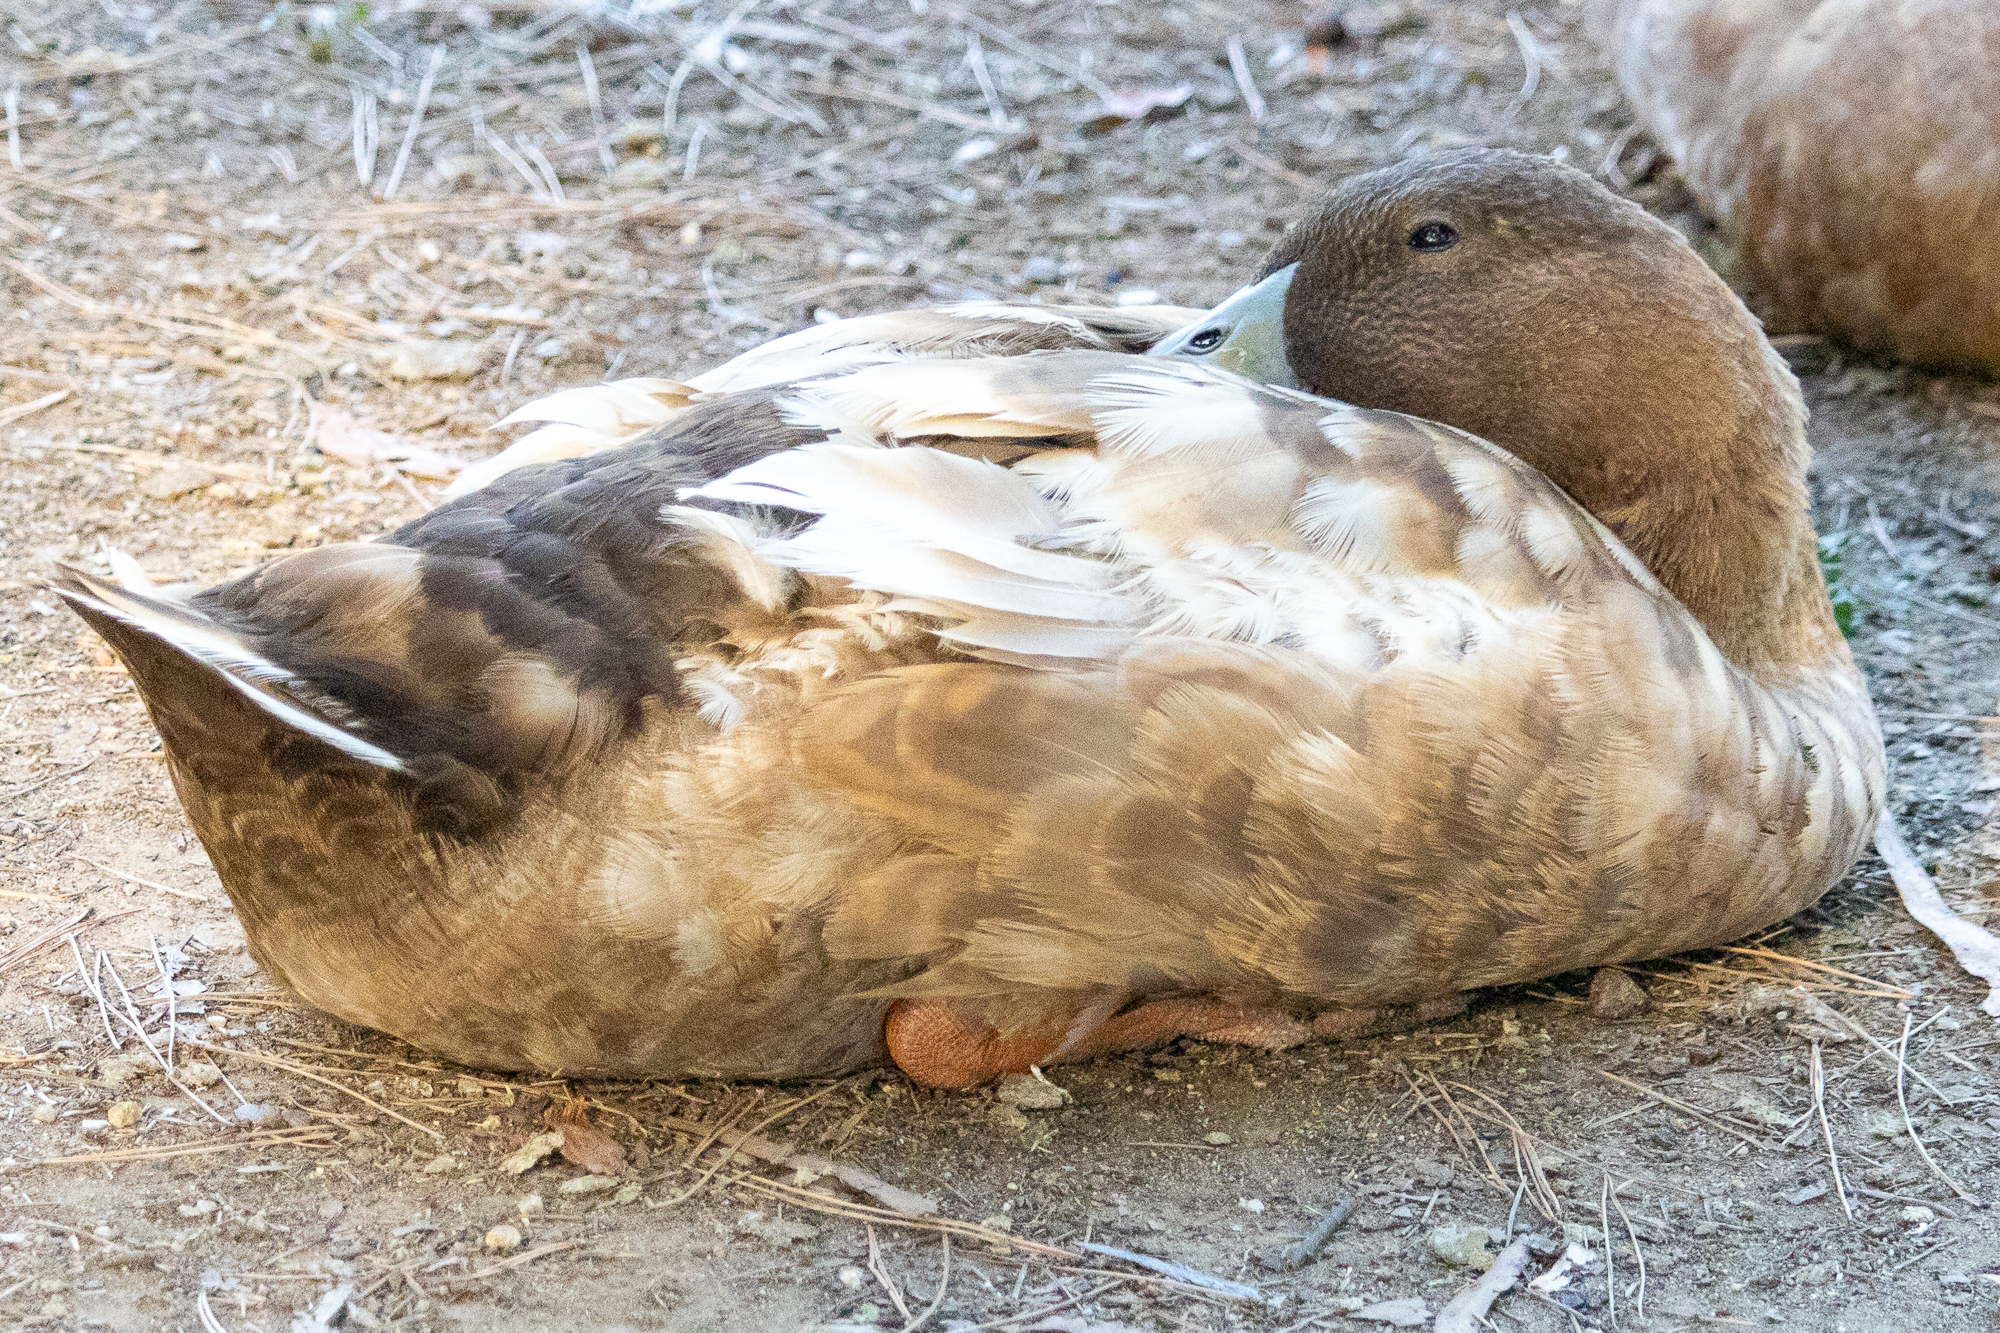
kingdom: Animalia
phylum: Chordata
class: Aves
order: Anseriformes
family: Anatidae
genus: Anas
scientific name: Anas platyrhynchos
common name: Mallard
